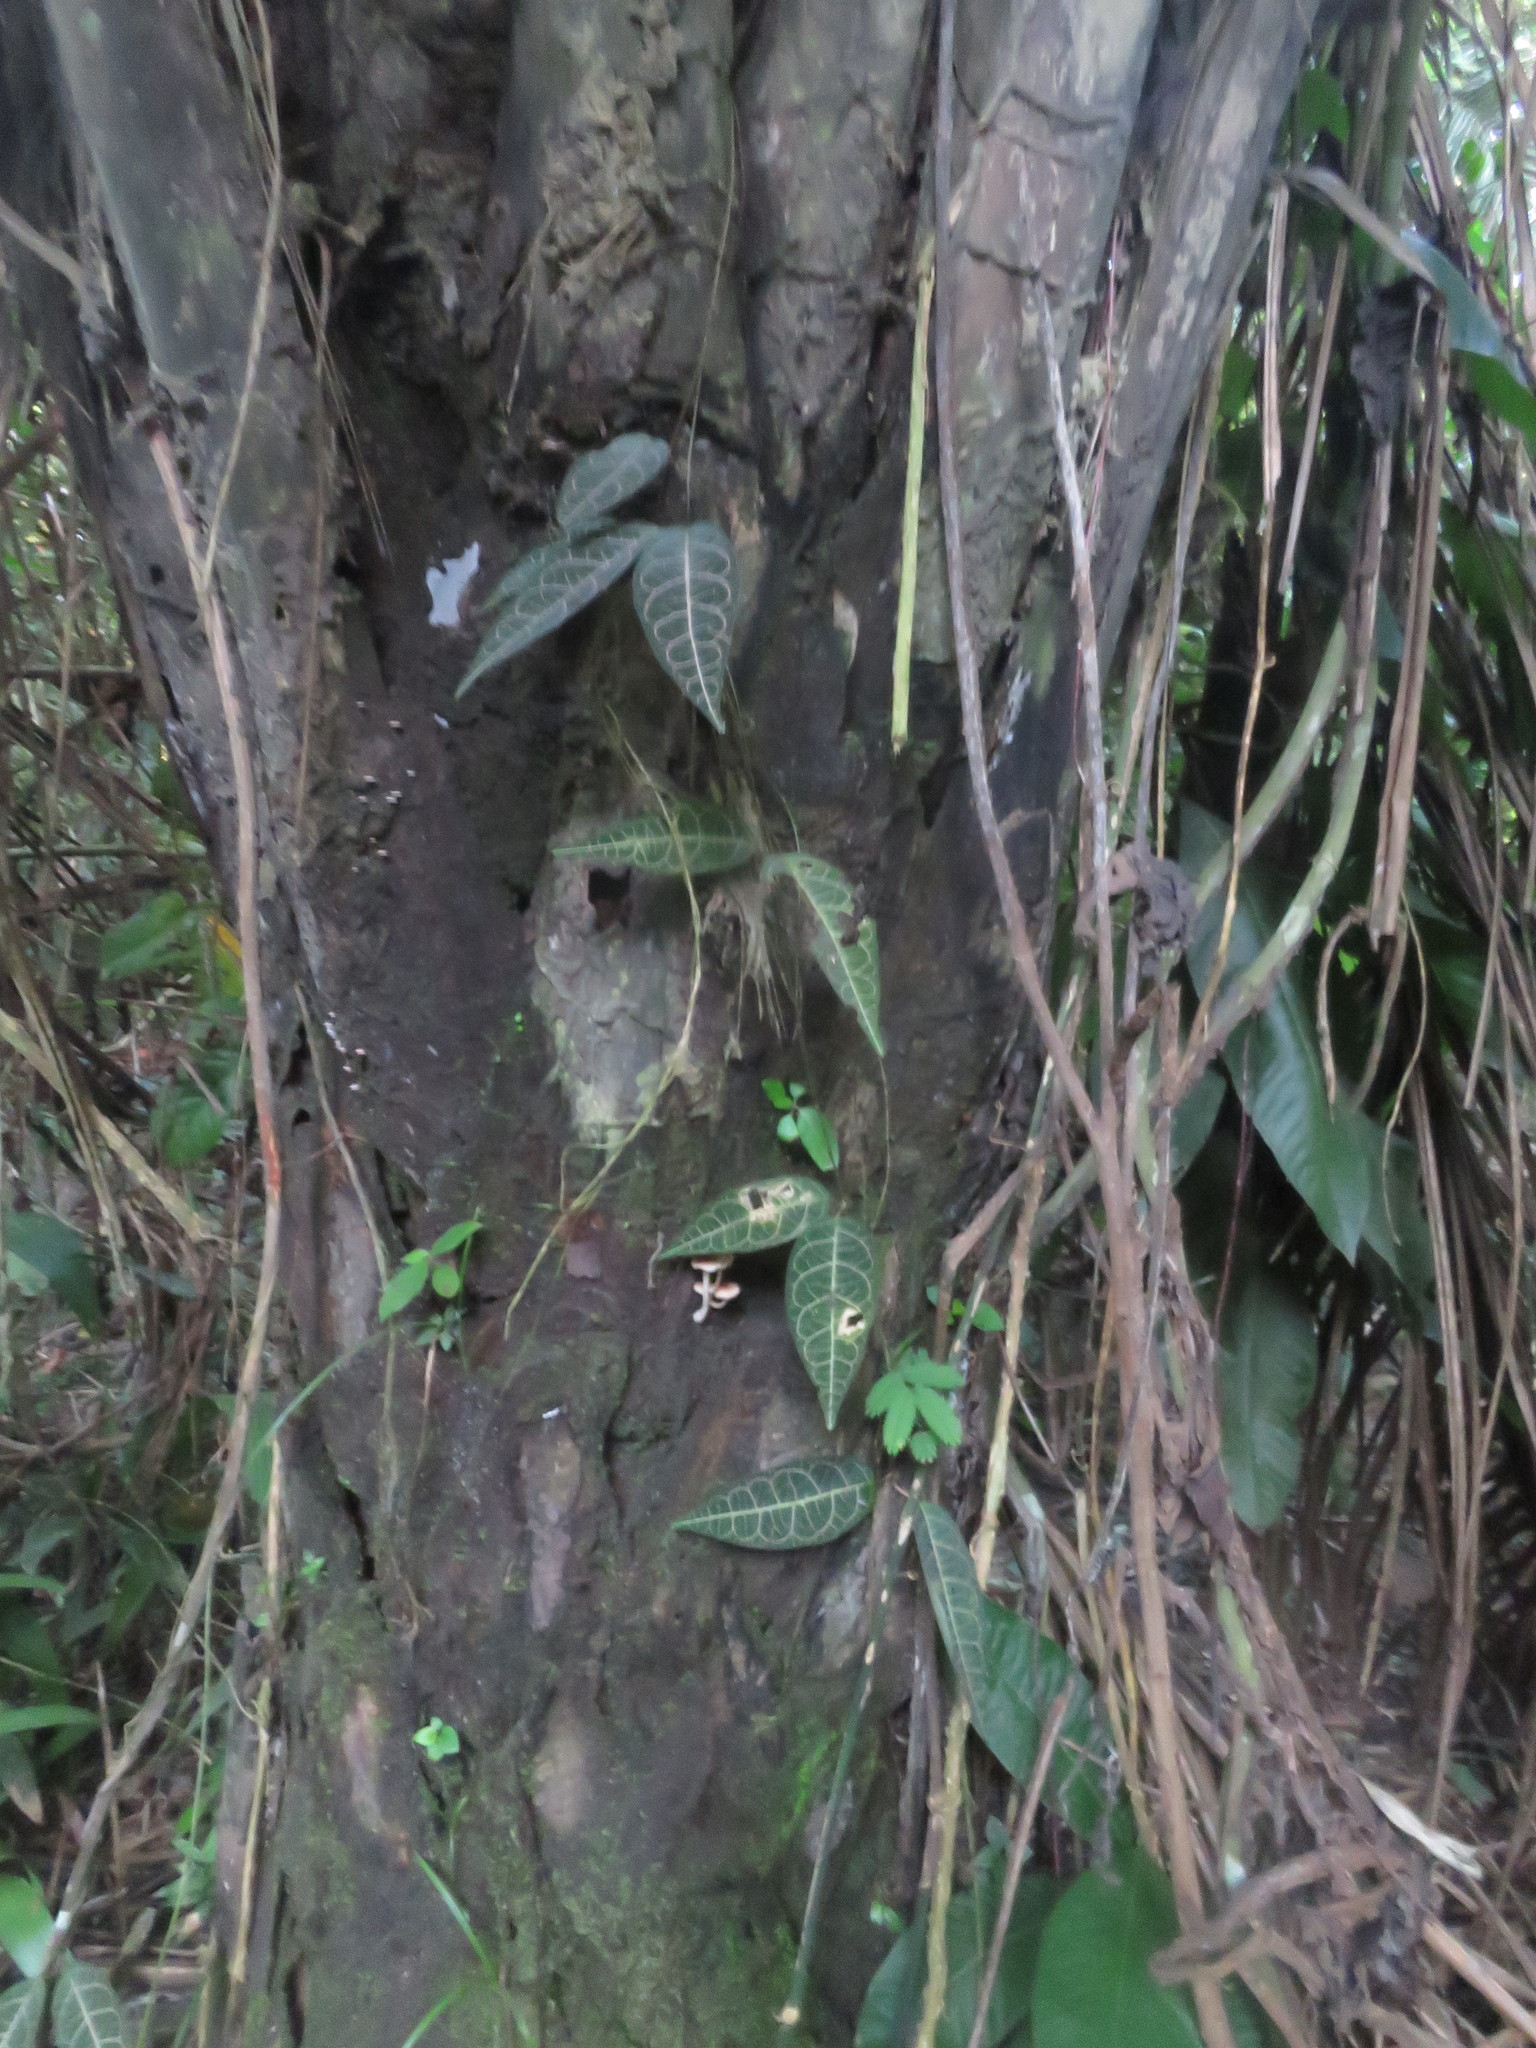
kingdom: Plantae
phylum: Tracheophyta
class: Magnoliopsida
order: Gentianales
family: Apocynaceae
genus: Prestonia
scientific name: Prestonia quinquangularis
